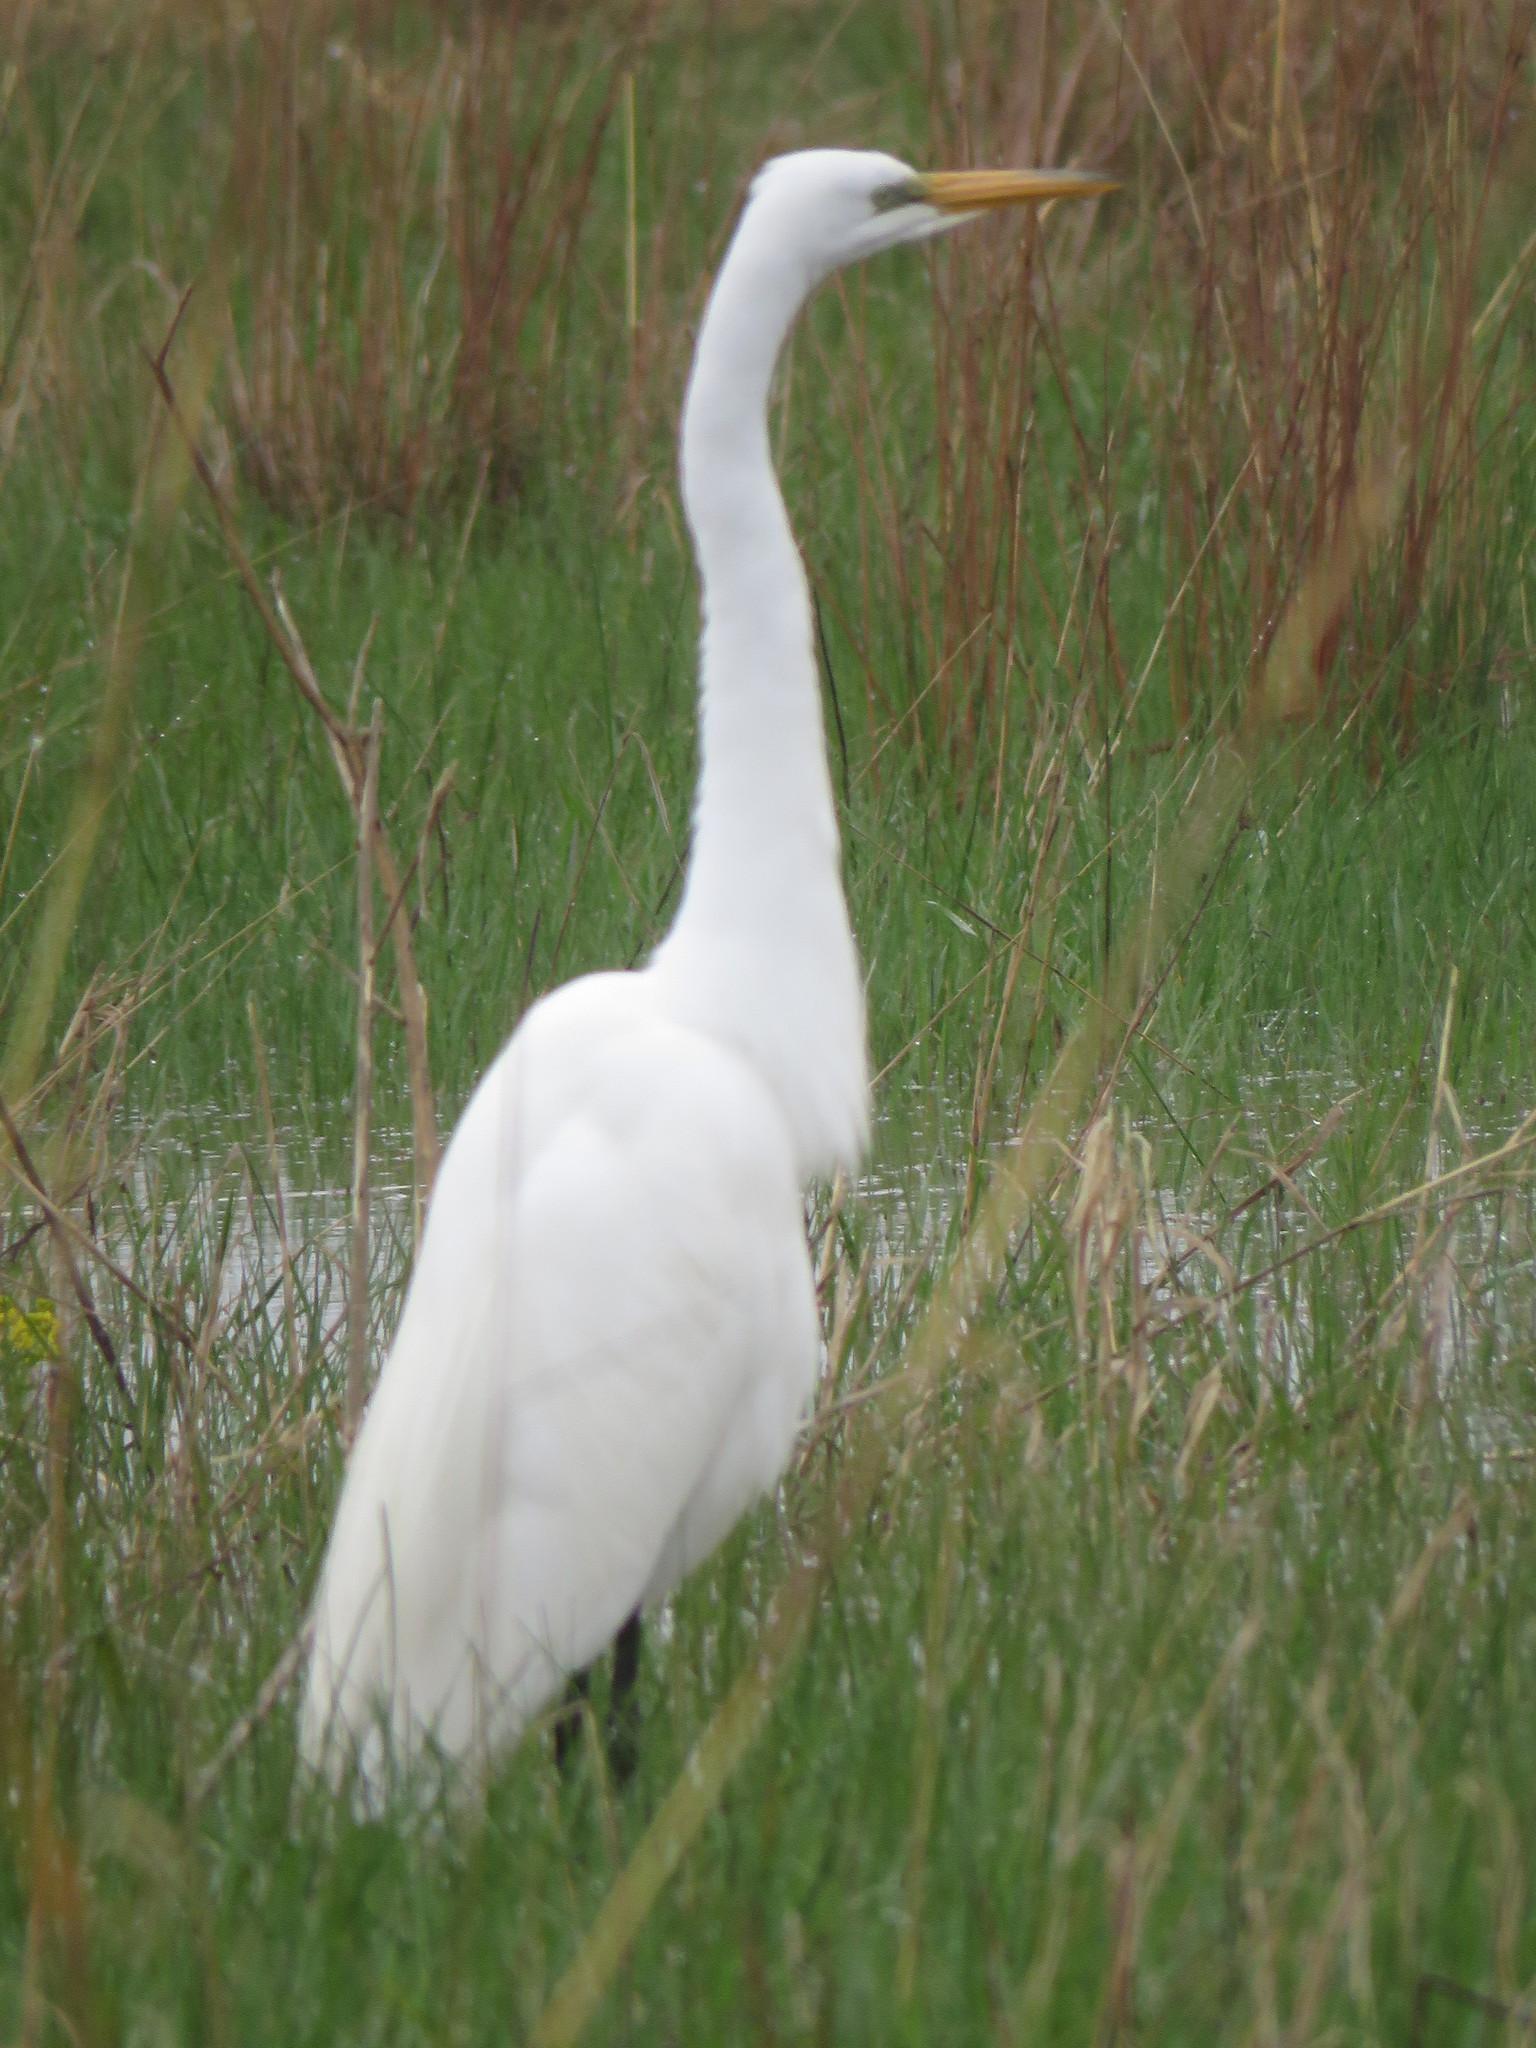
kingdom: Animalia
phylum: Chordata
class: Aves
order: Pelecaniformes
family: Ardeidae
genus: Ardea
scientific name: Ardea alba
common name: Great egret
